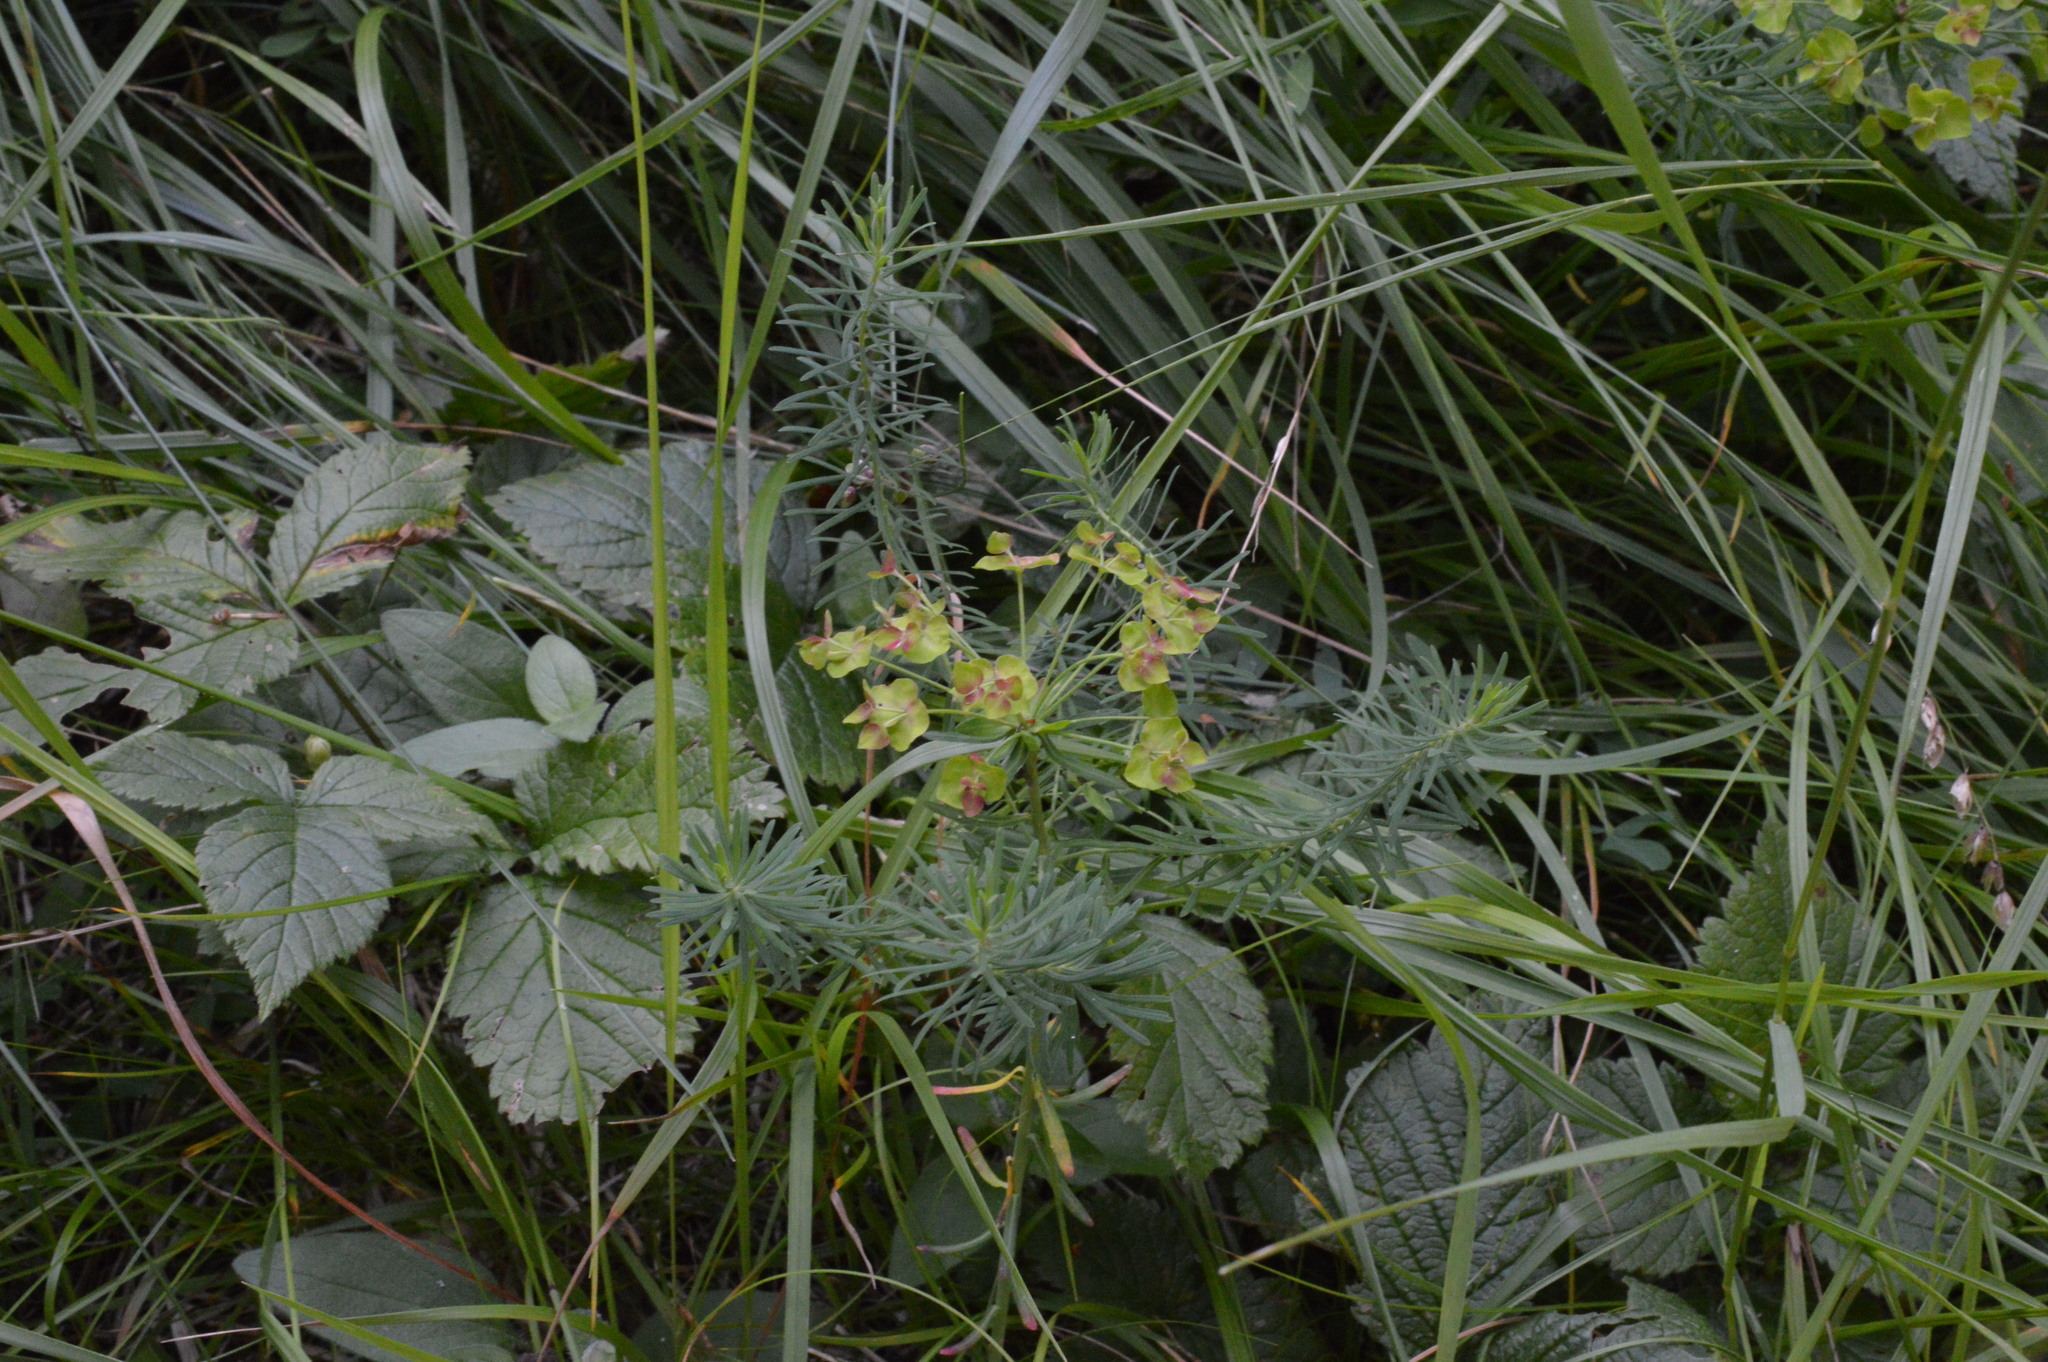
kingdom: Plantae
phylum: Tracheophyta
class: Magnoliopsida
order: Malpighiales
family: Euphorbiaceae
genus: Euphorbia
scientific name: Euphorbia cyparissias
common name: Cypress spurge
